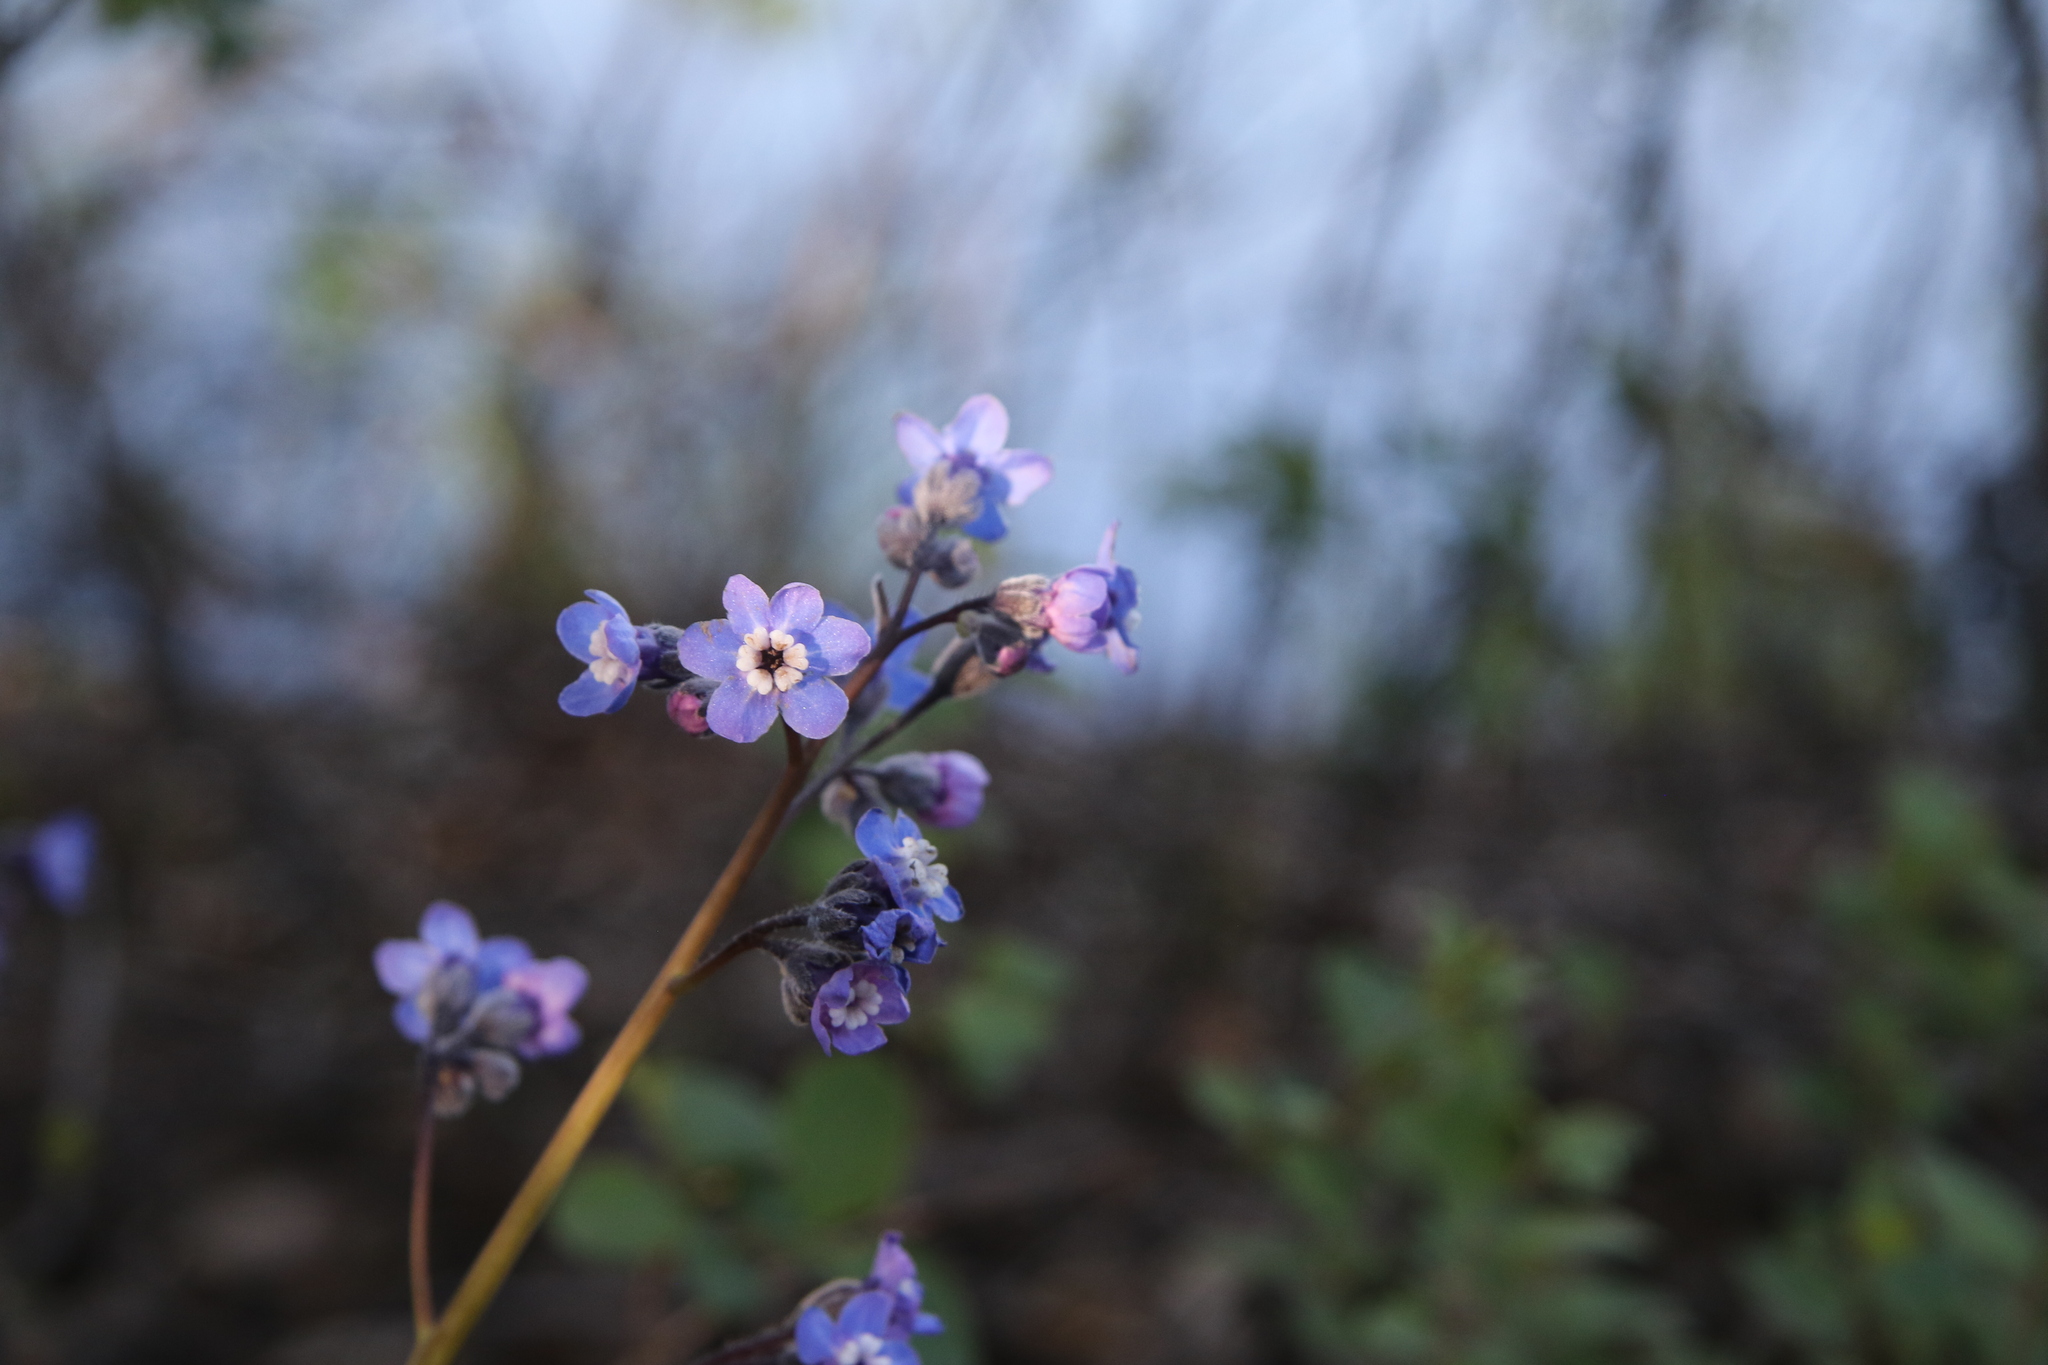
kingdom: Plantae
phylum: Tracheophyta
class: Magnoliopsida
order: Boraginales
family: Boraginaceae
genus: Adelinia
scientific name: Adelinia grande
